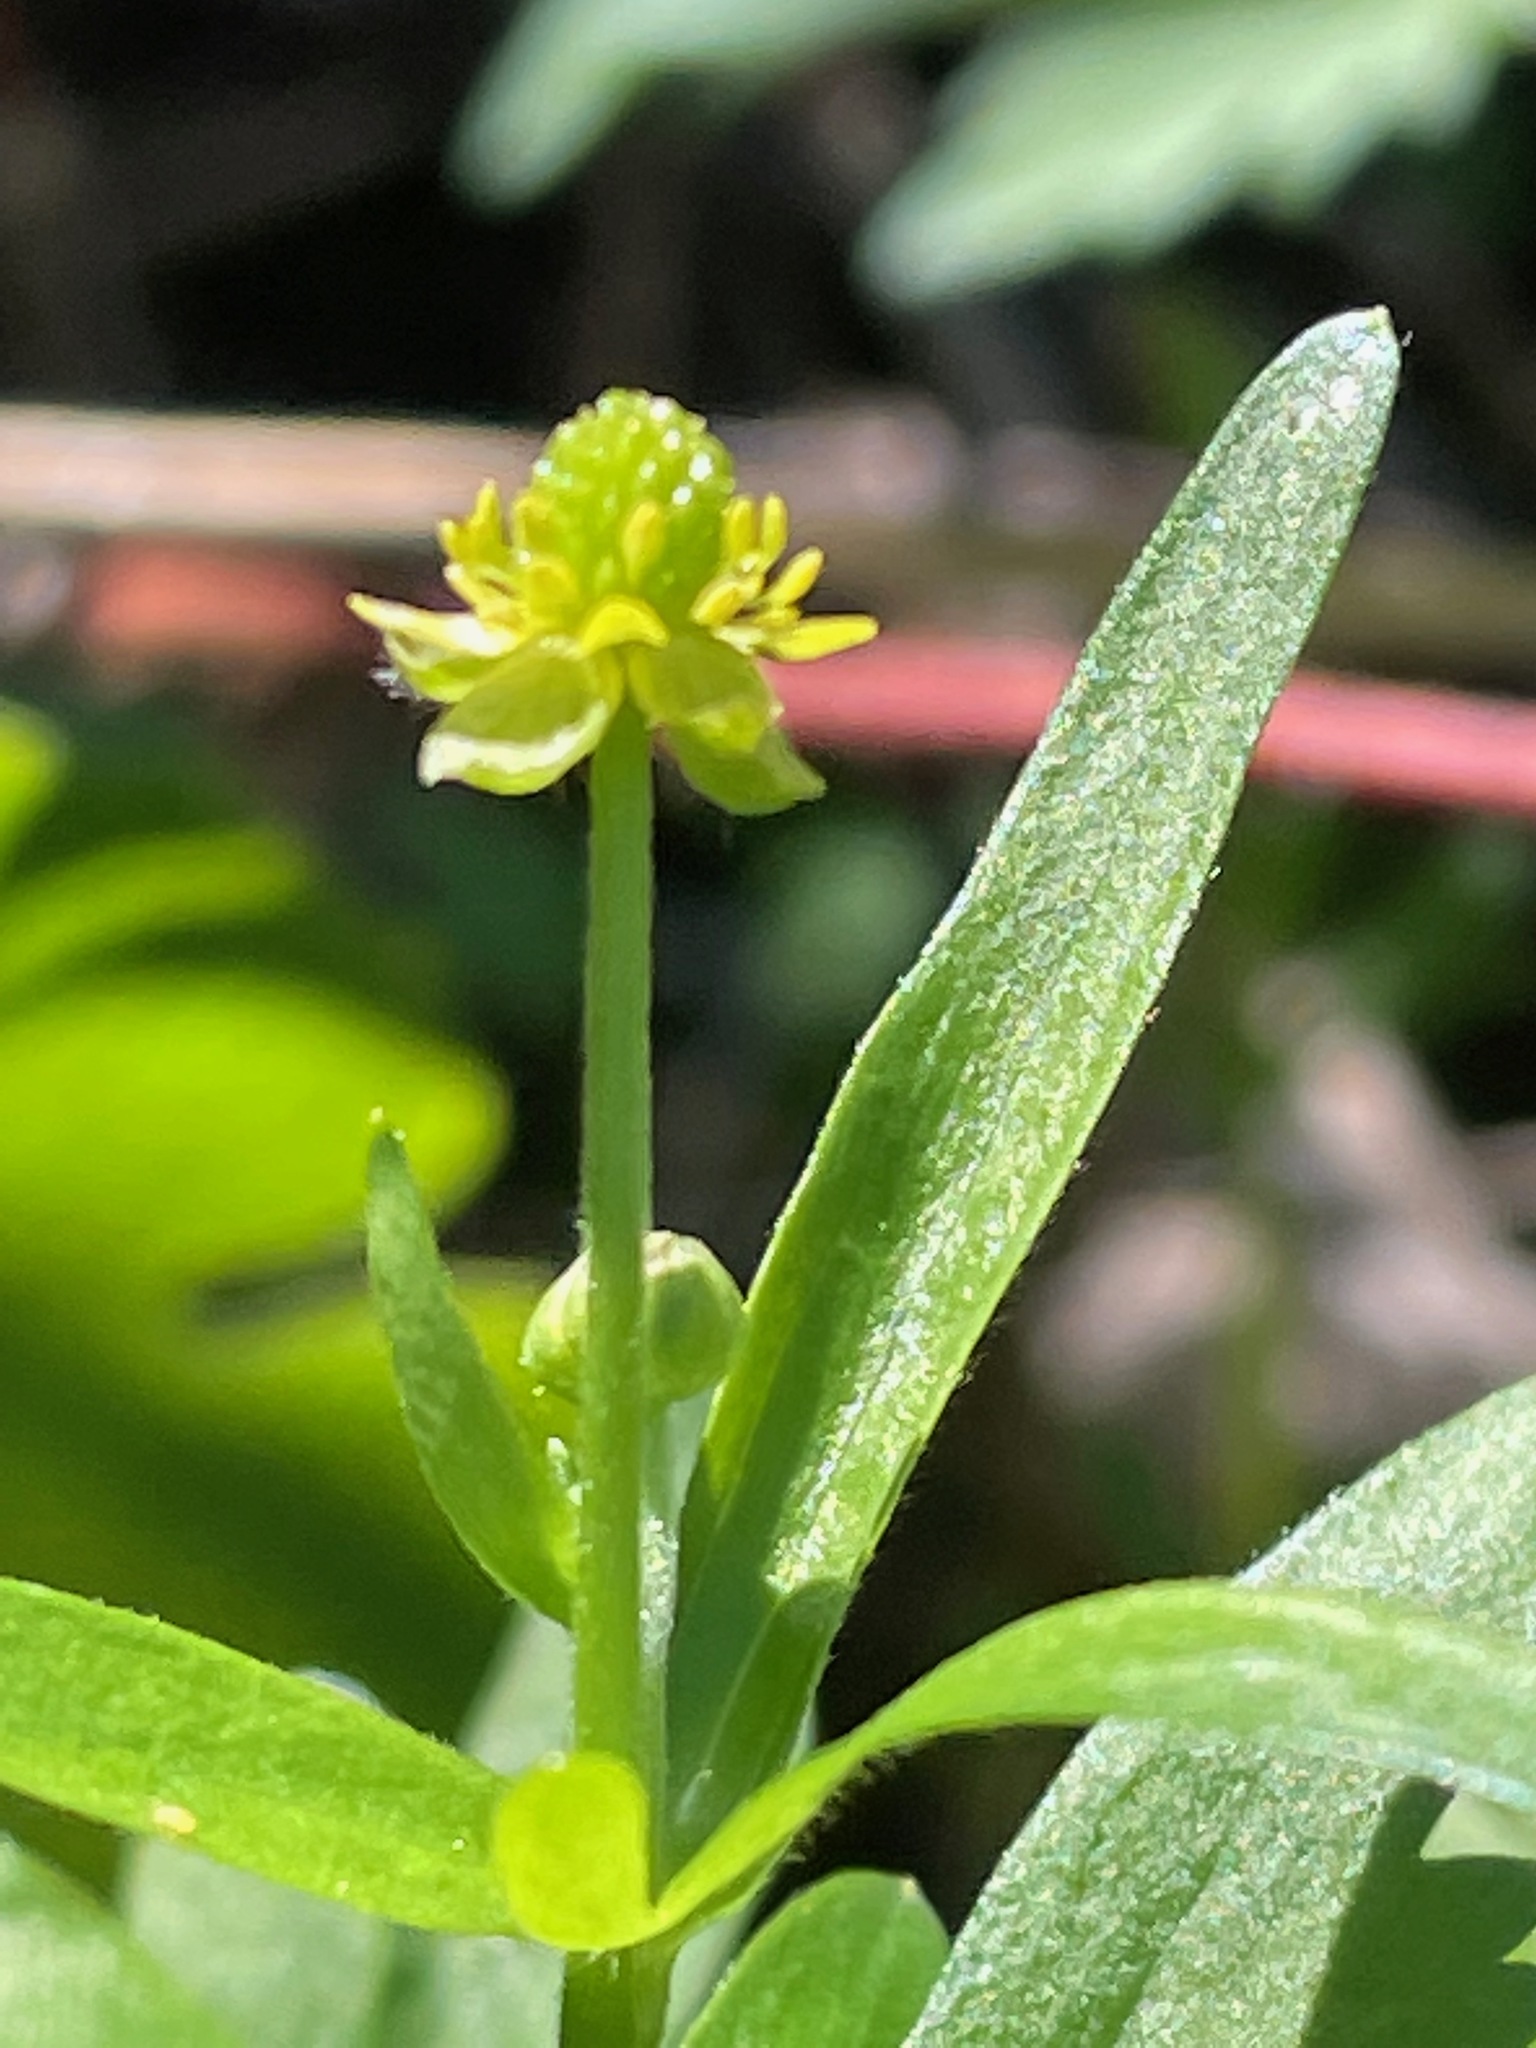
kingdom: Plantae
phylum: Tracheophyta
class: Magnoliopsida
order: Ranunculales
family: Ranunculaceae
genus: Ranunculus
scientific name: Ranunculus abortivus
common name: Early wood buttercup
